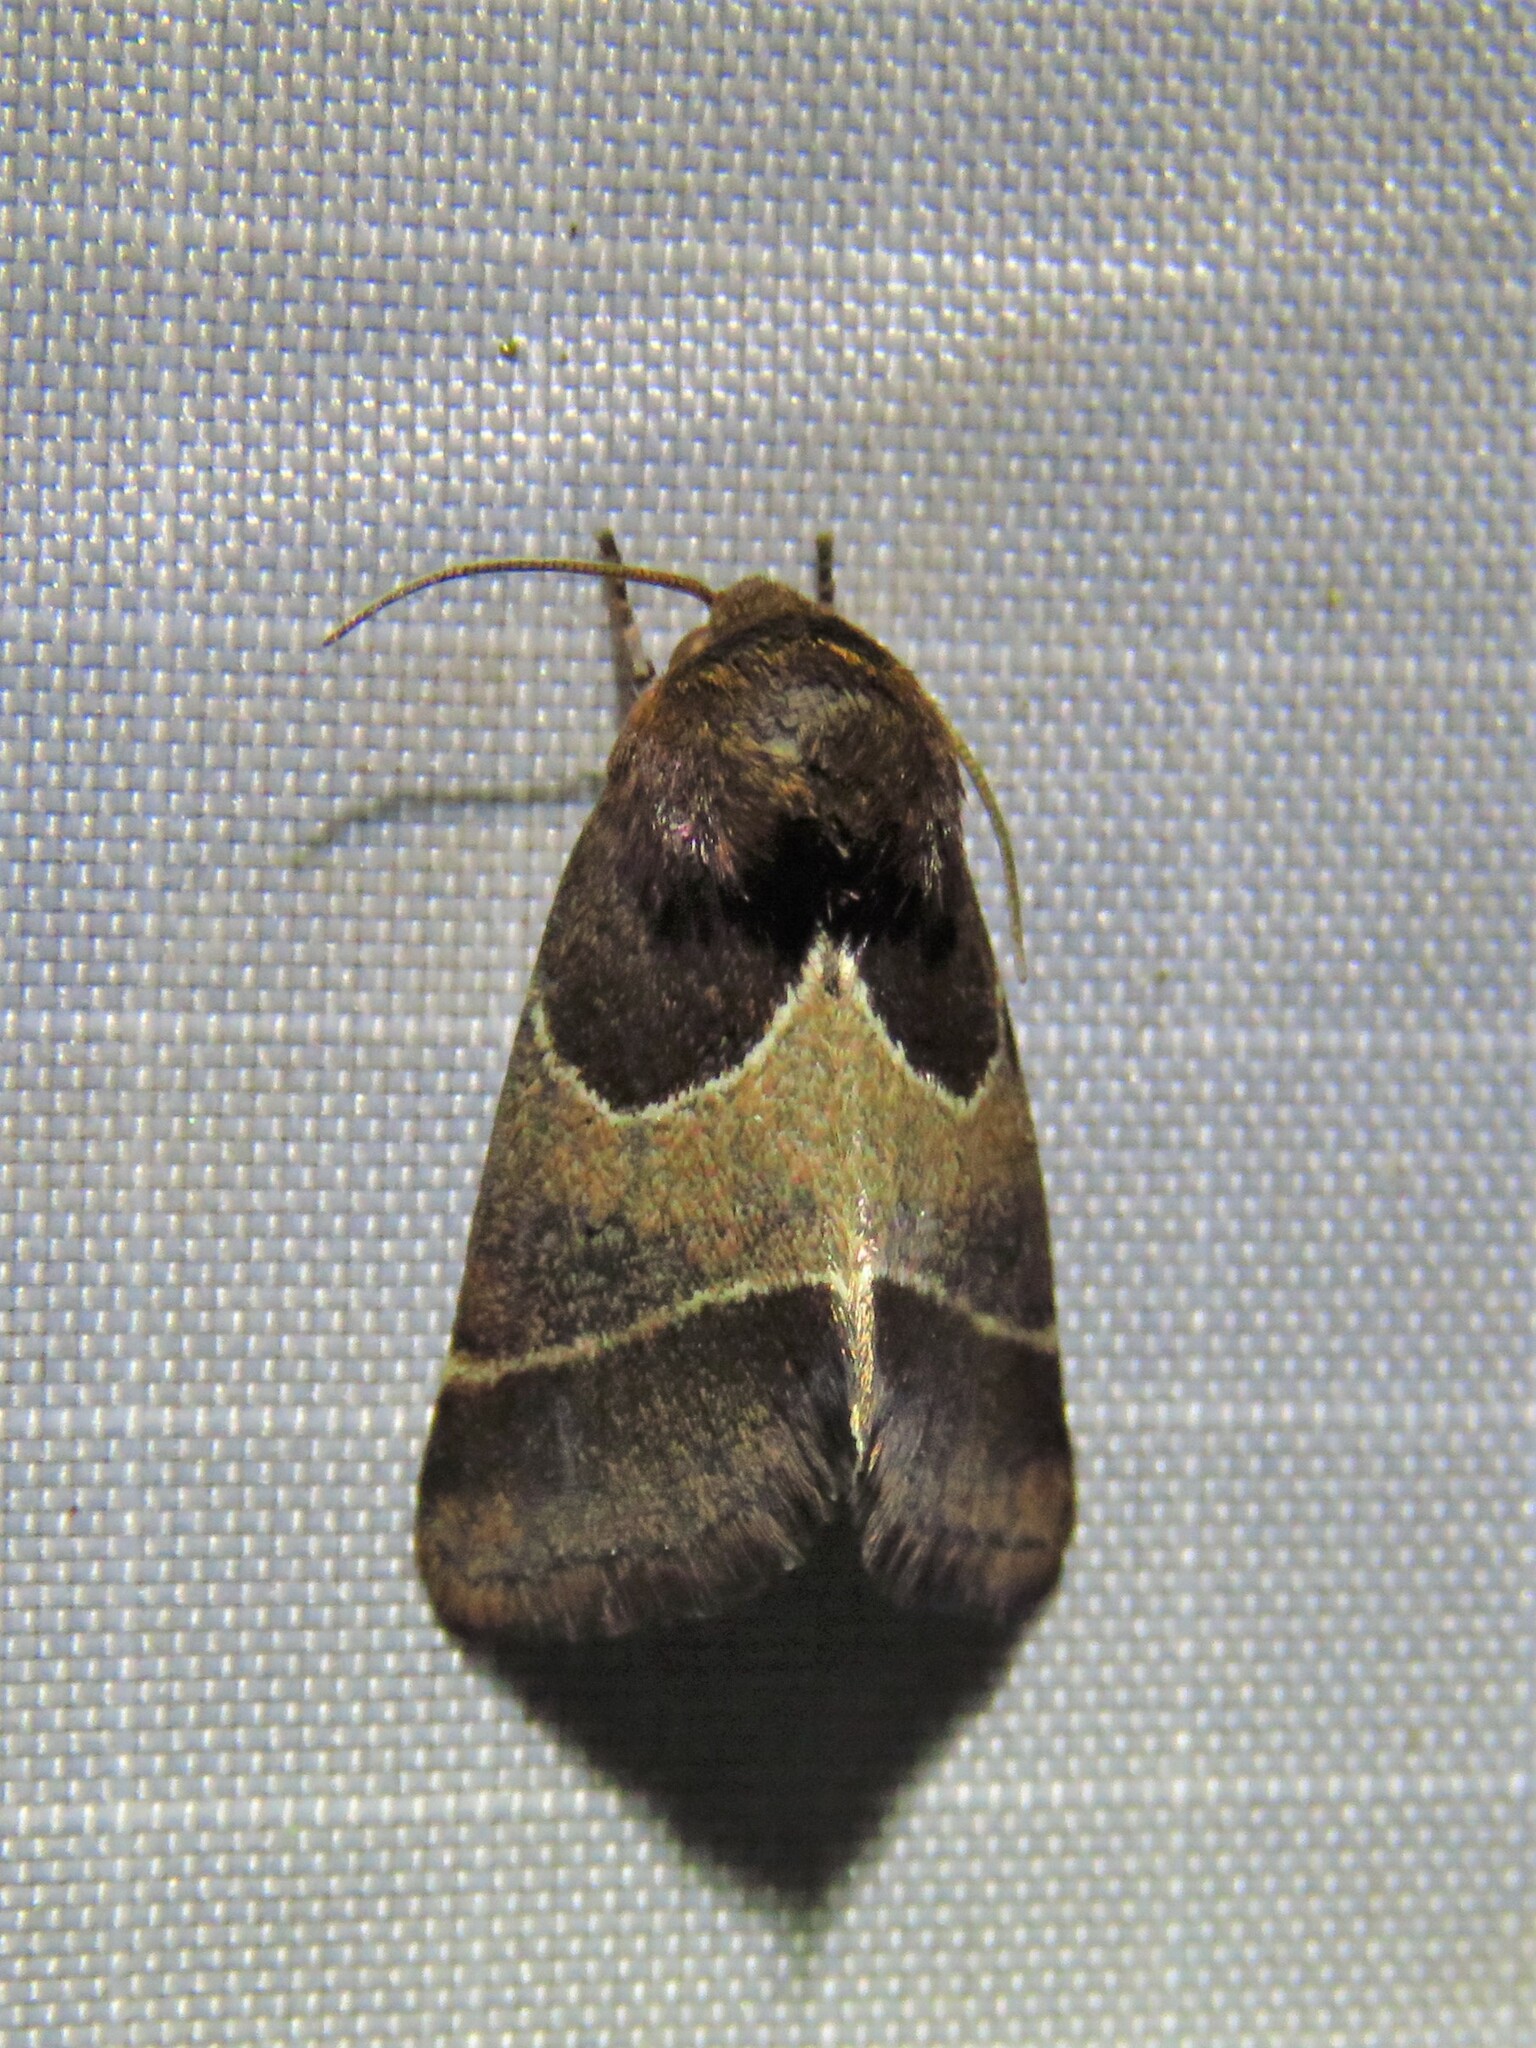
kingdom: Animalia
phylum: Arthropoda
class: Insecta
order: Lepidoptera
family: Noctuidae
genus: Schinia
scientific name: Schinia arcigera
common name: Arcigera flower moth
